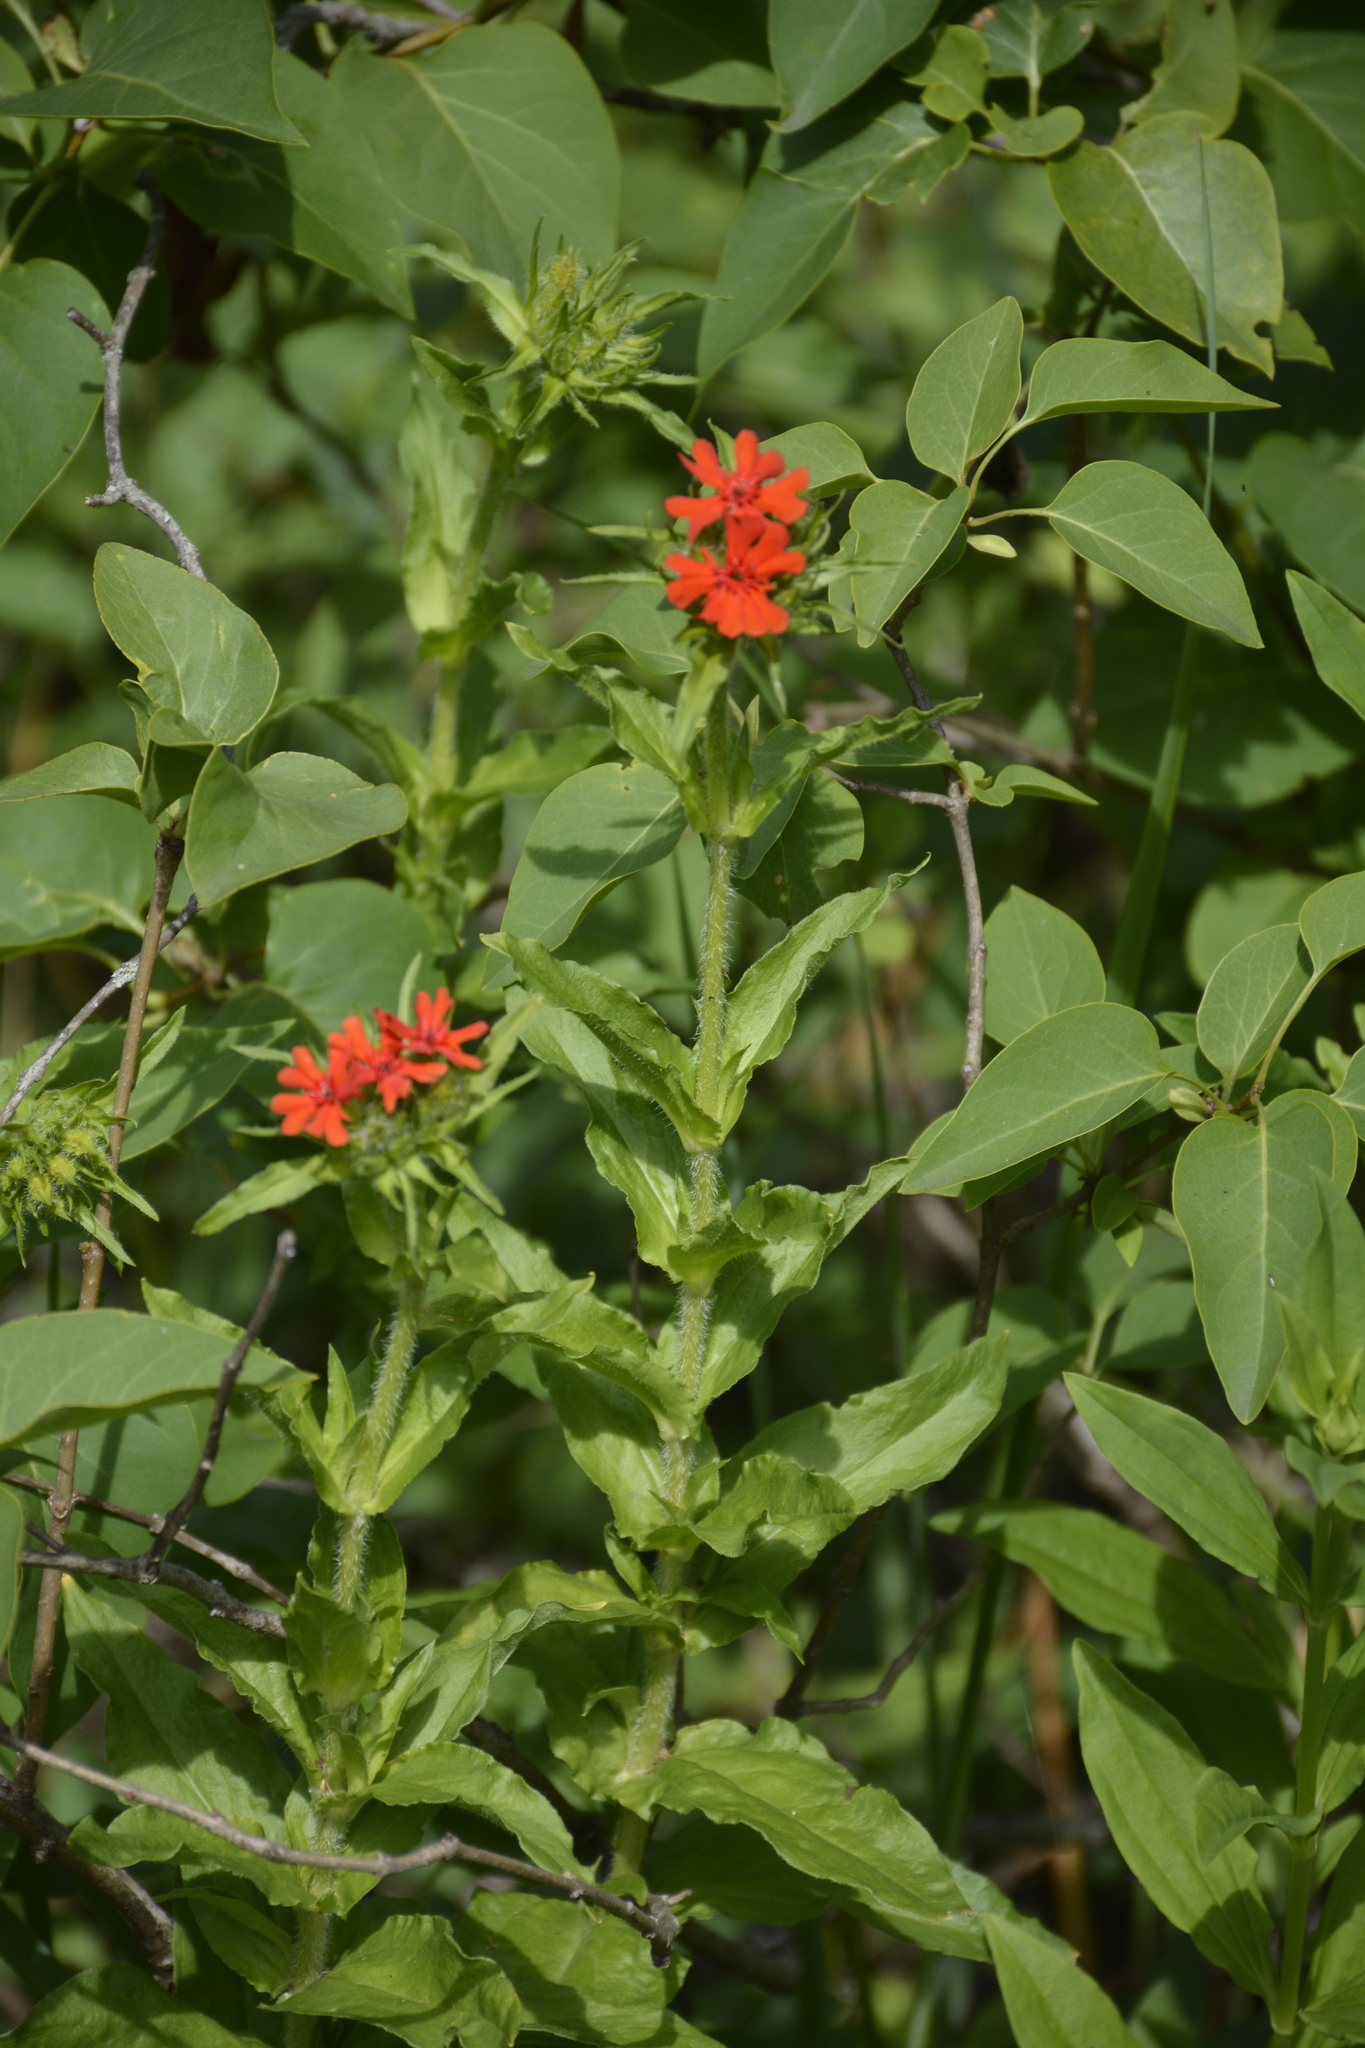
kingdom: Plantae
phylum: Tracheophyta
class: Magnoliopsida
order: Caryophyllales
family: Caryophyllaceae
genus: Silene
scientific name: Silene chalcedonica
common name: Maltese-cross
